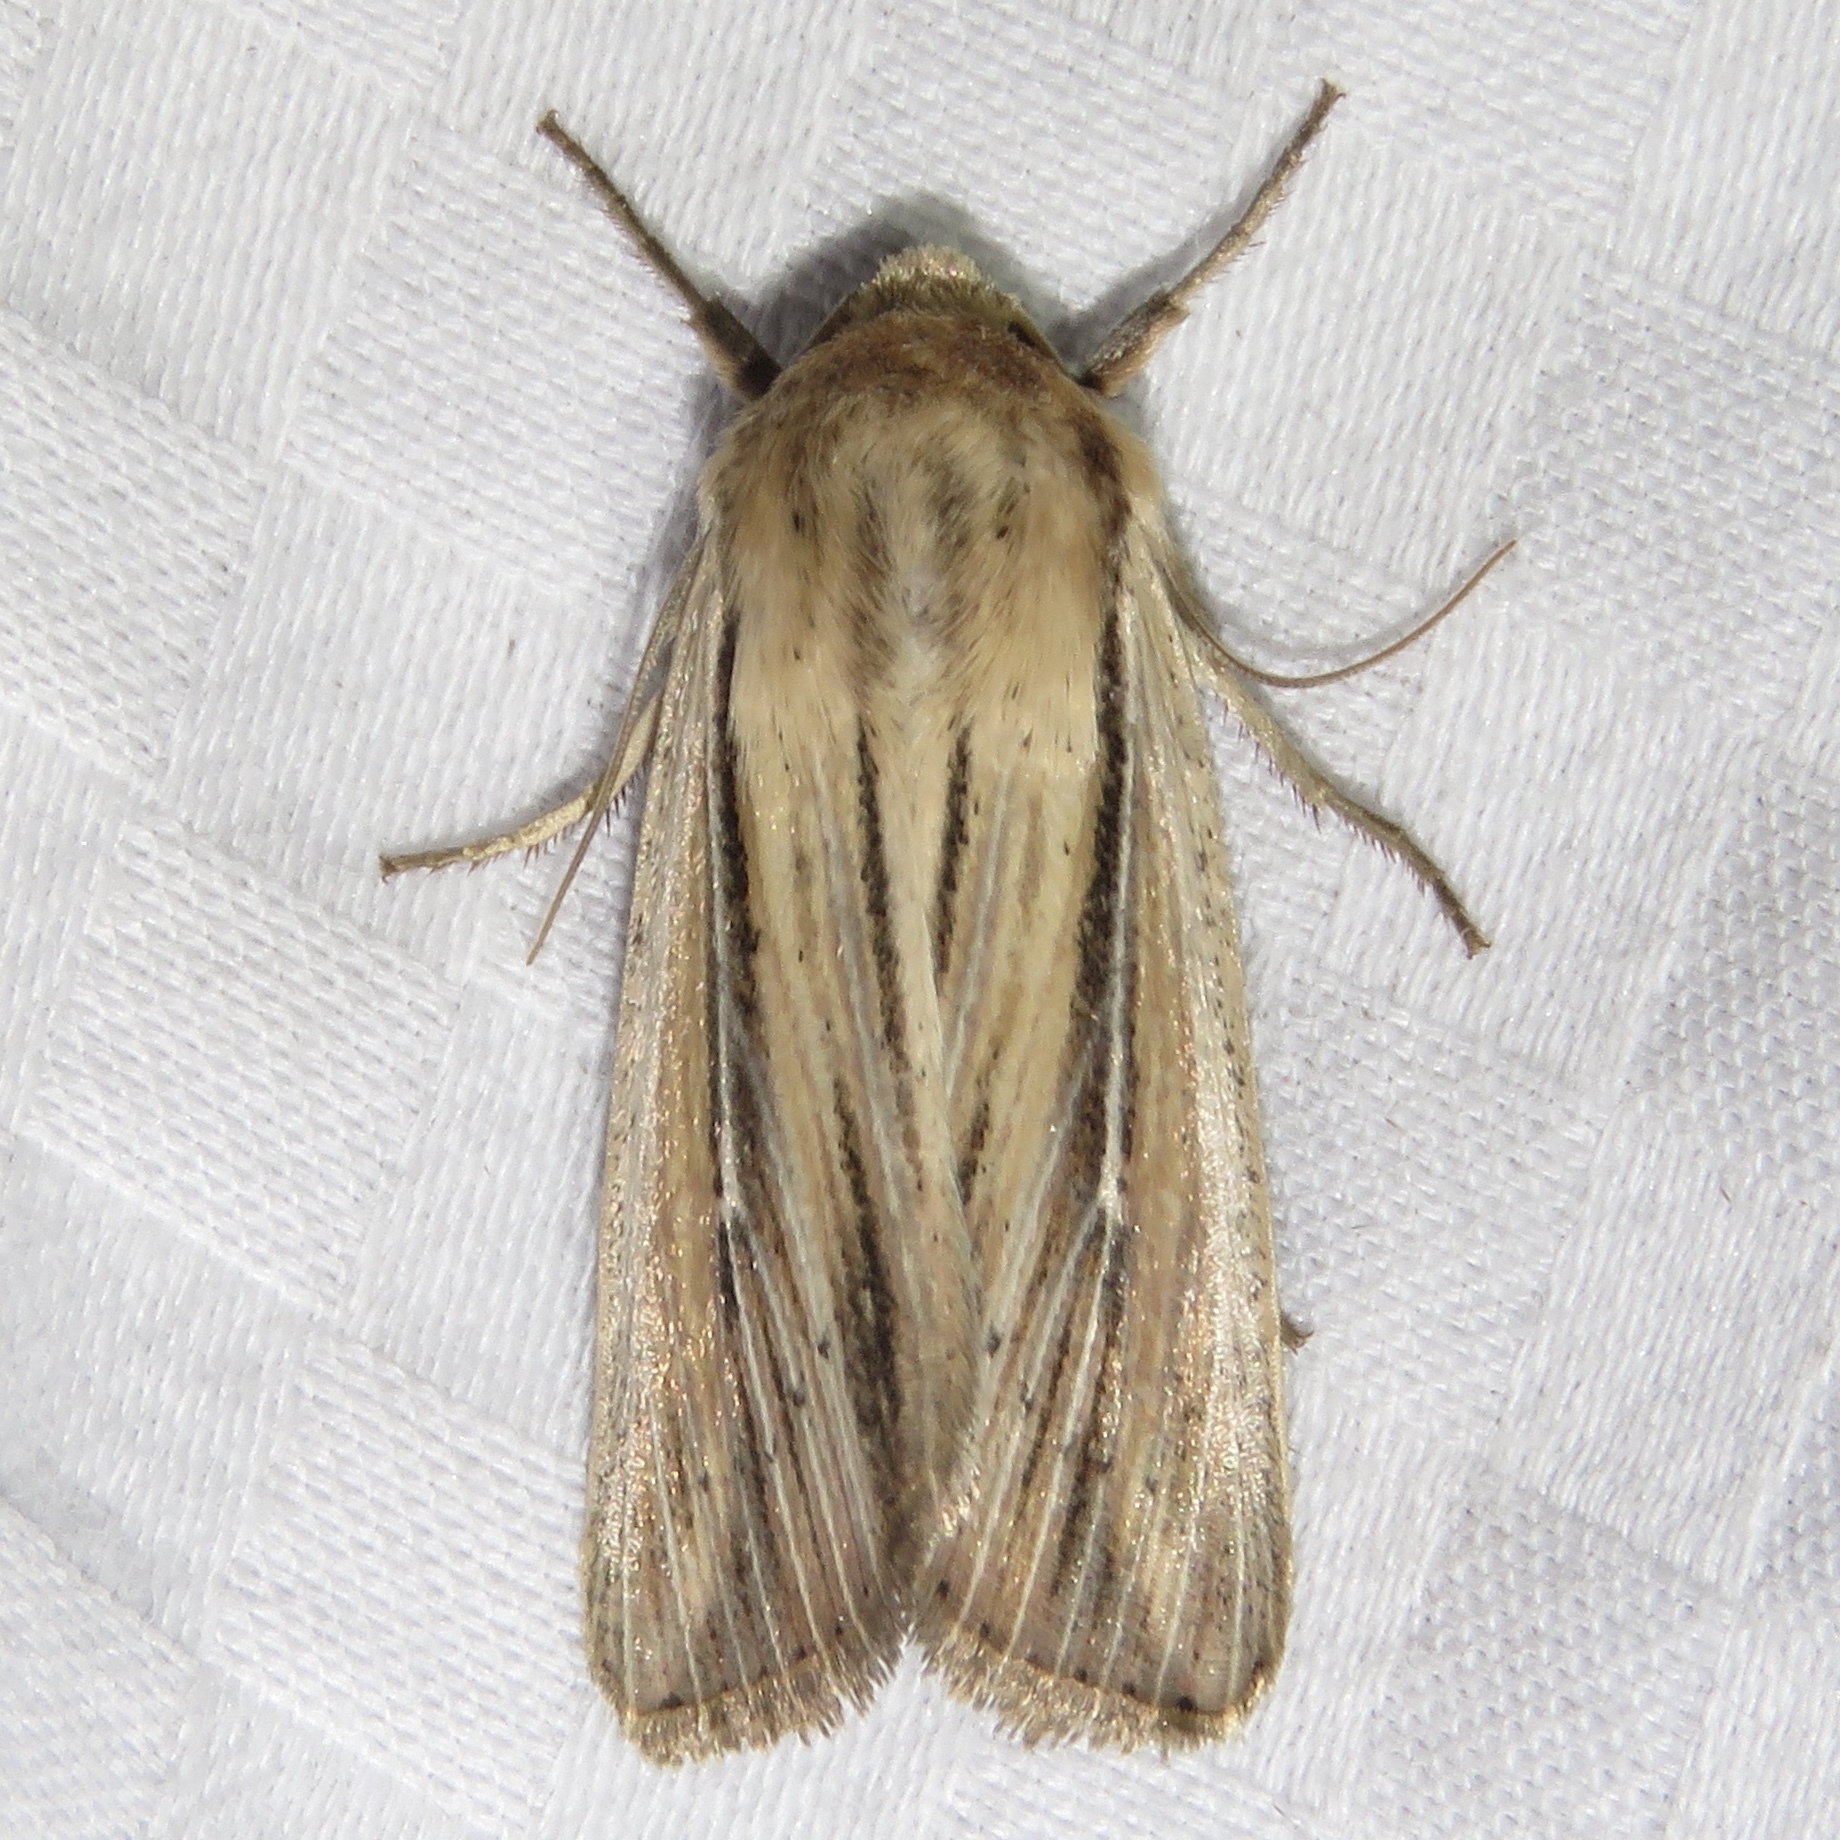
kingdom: Animalia
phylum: Arthropoda
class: Insecta
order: Lepidoptera
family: Noctuidae
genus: Leucania
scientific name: Leucania commoides
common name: Two-lined wainscot
